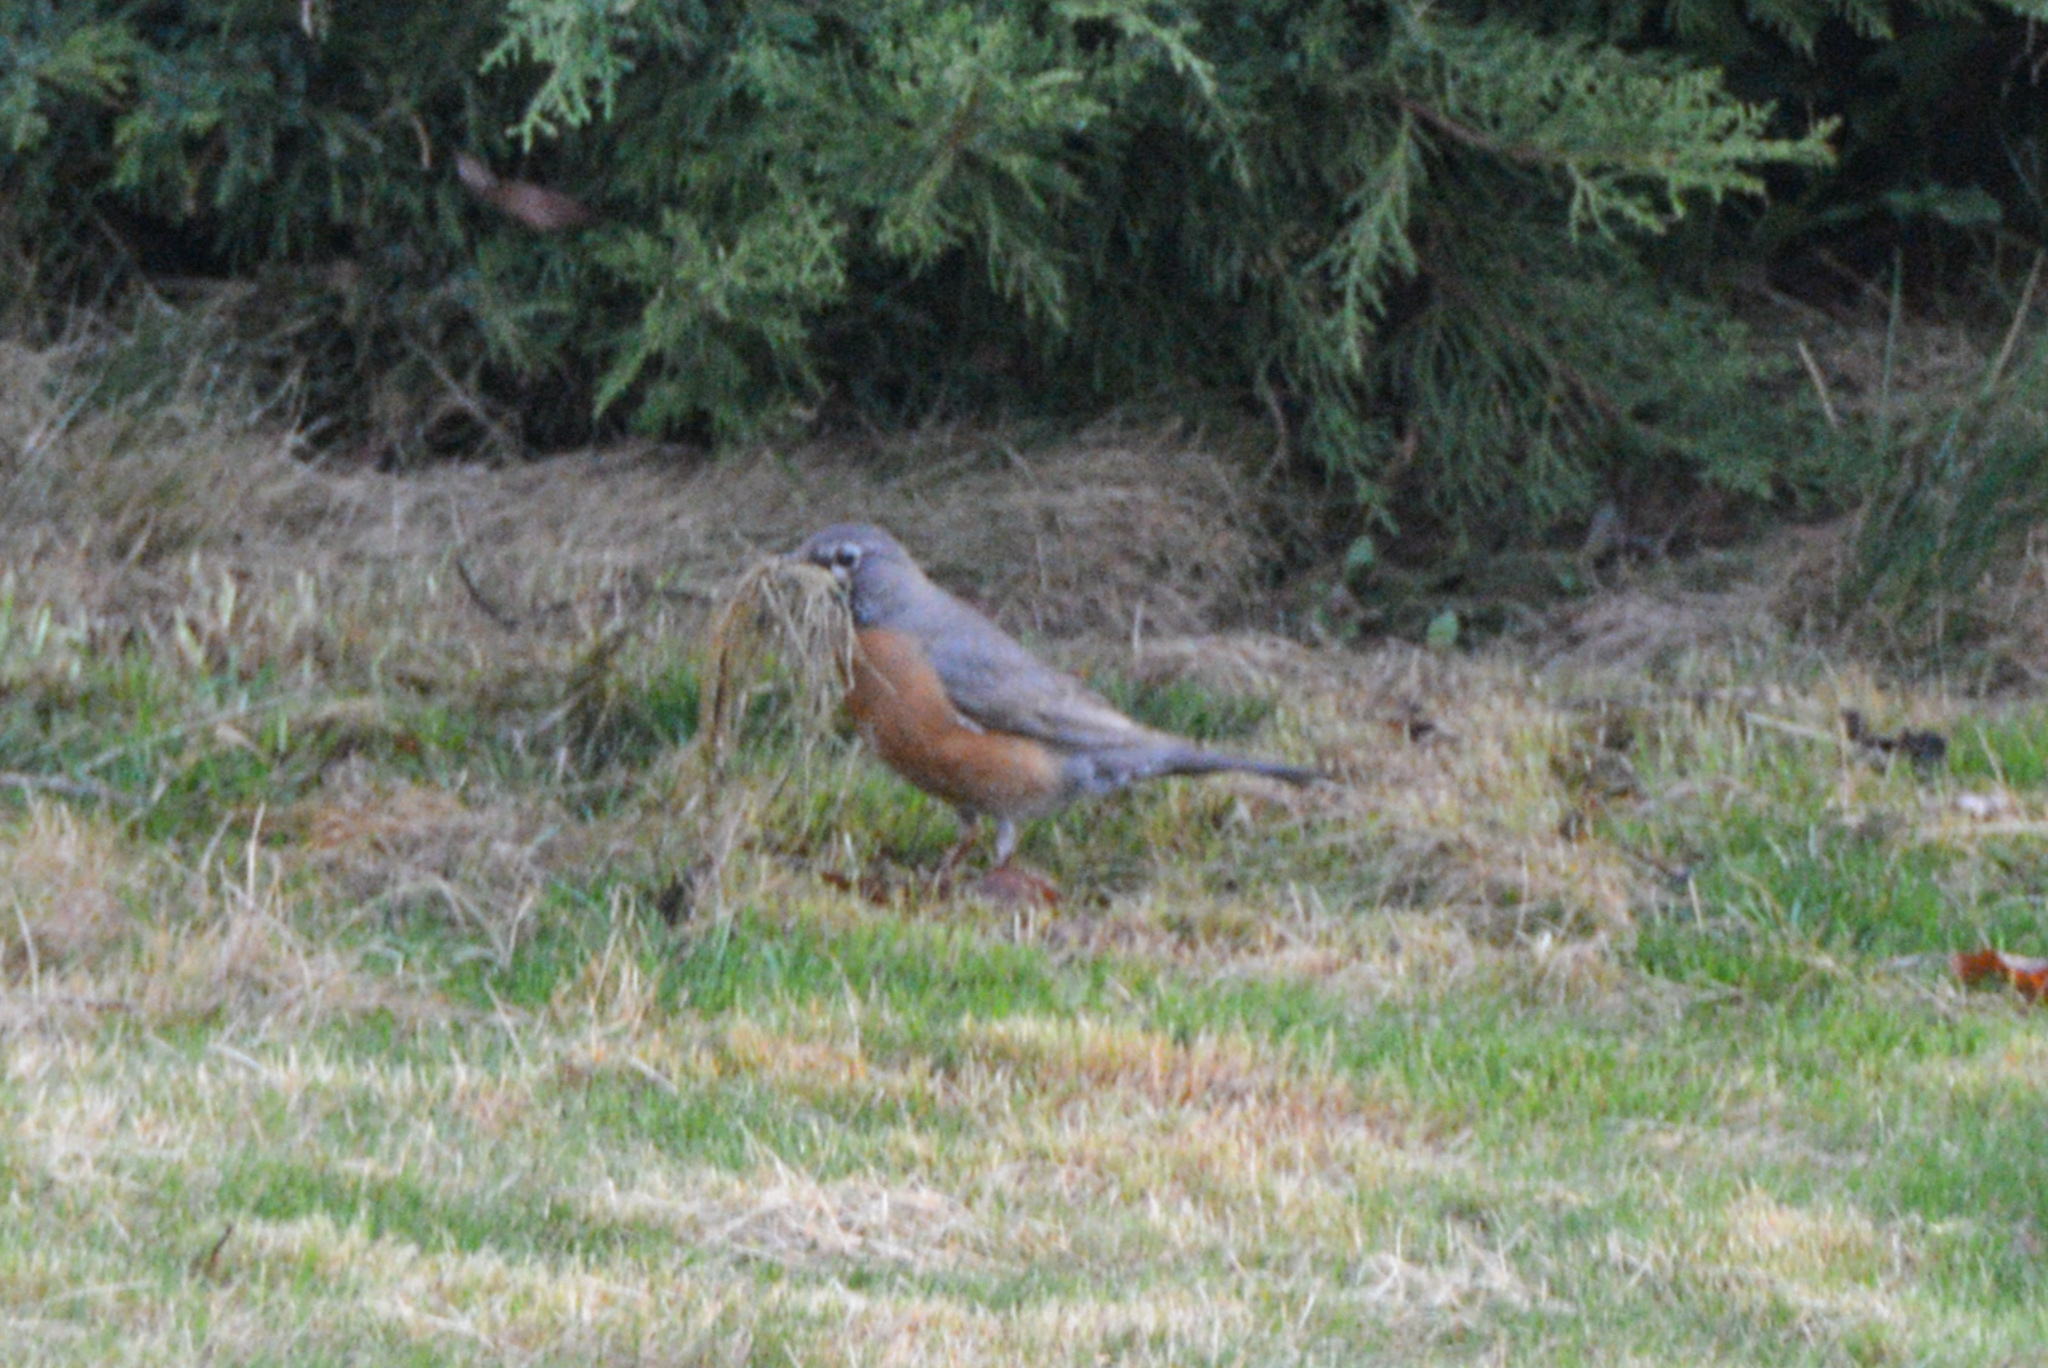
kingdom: Animalia
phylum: Chordata
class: Aves
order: Passeriformes
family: Turdidae
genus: Turdus
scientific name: Turdus migratorius
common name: American robin
